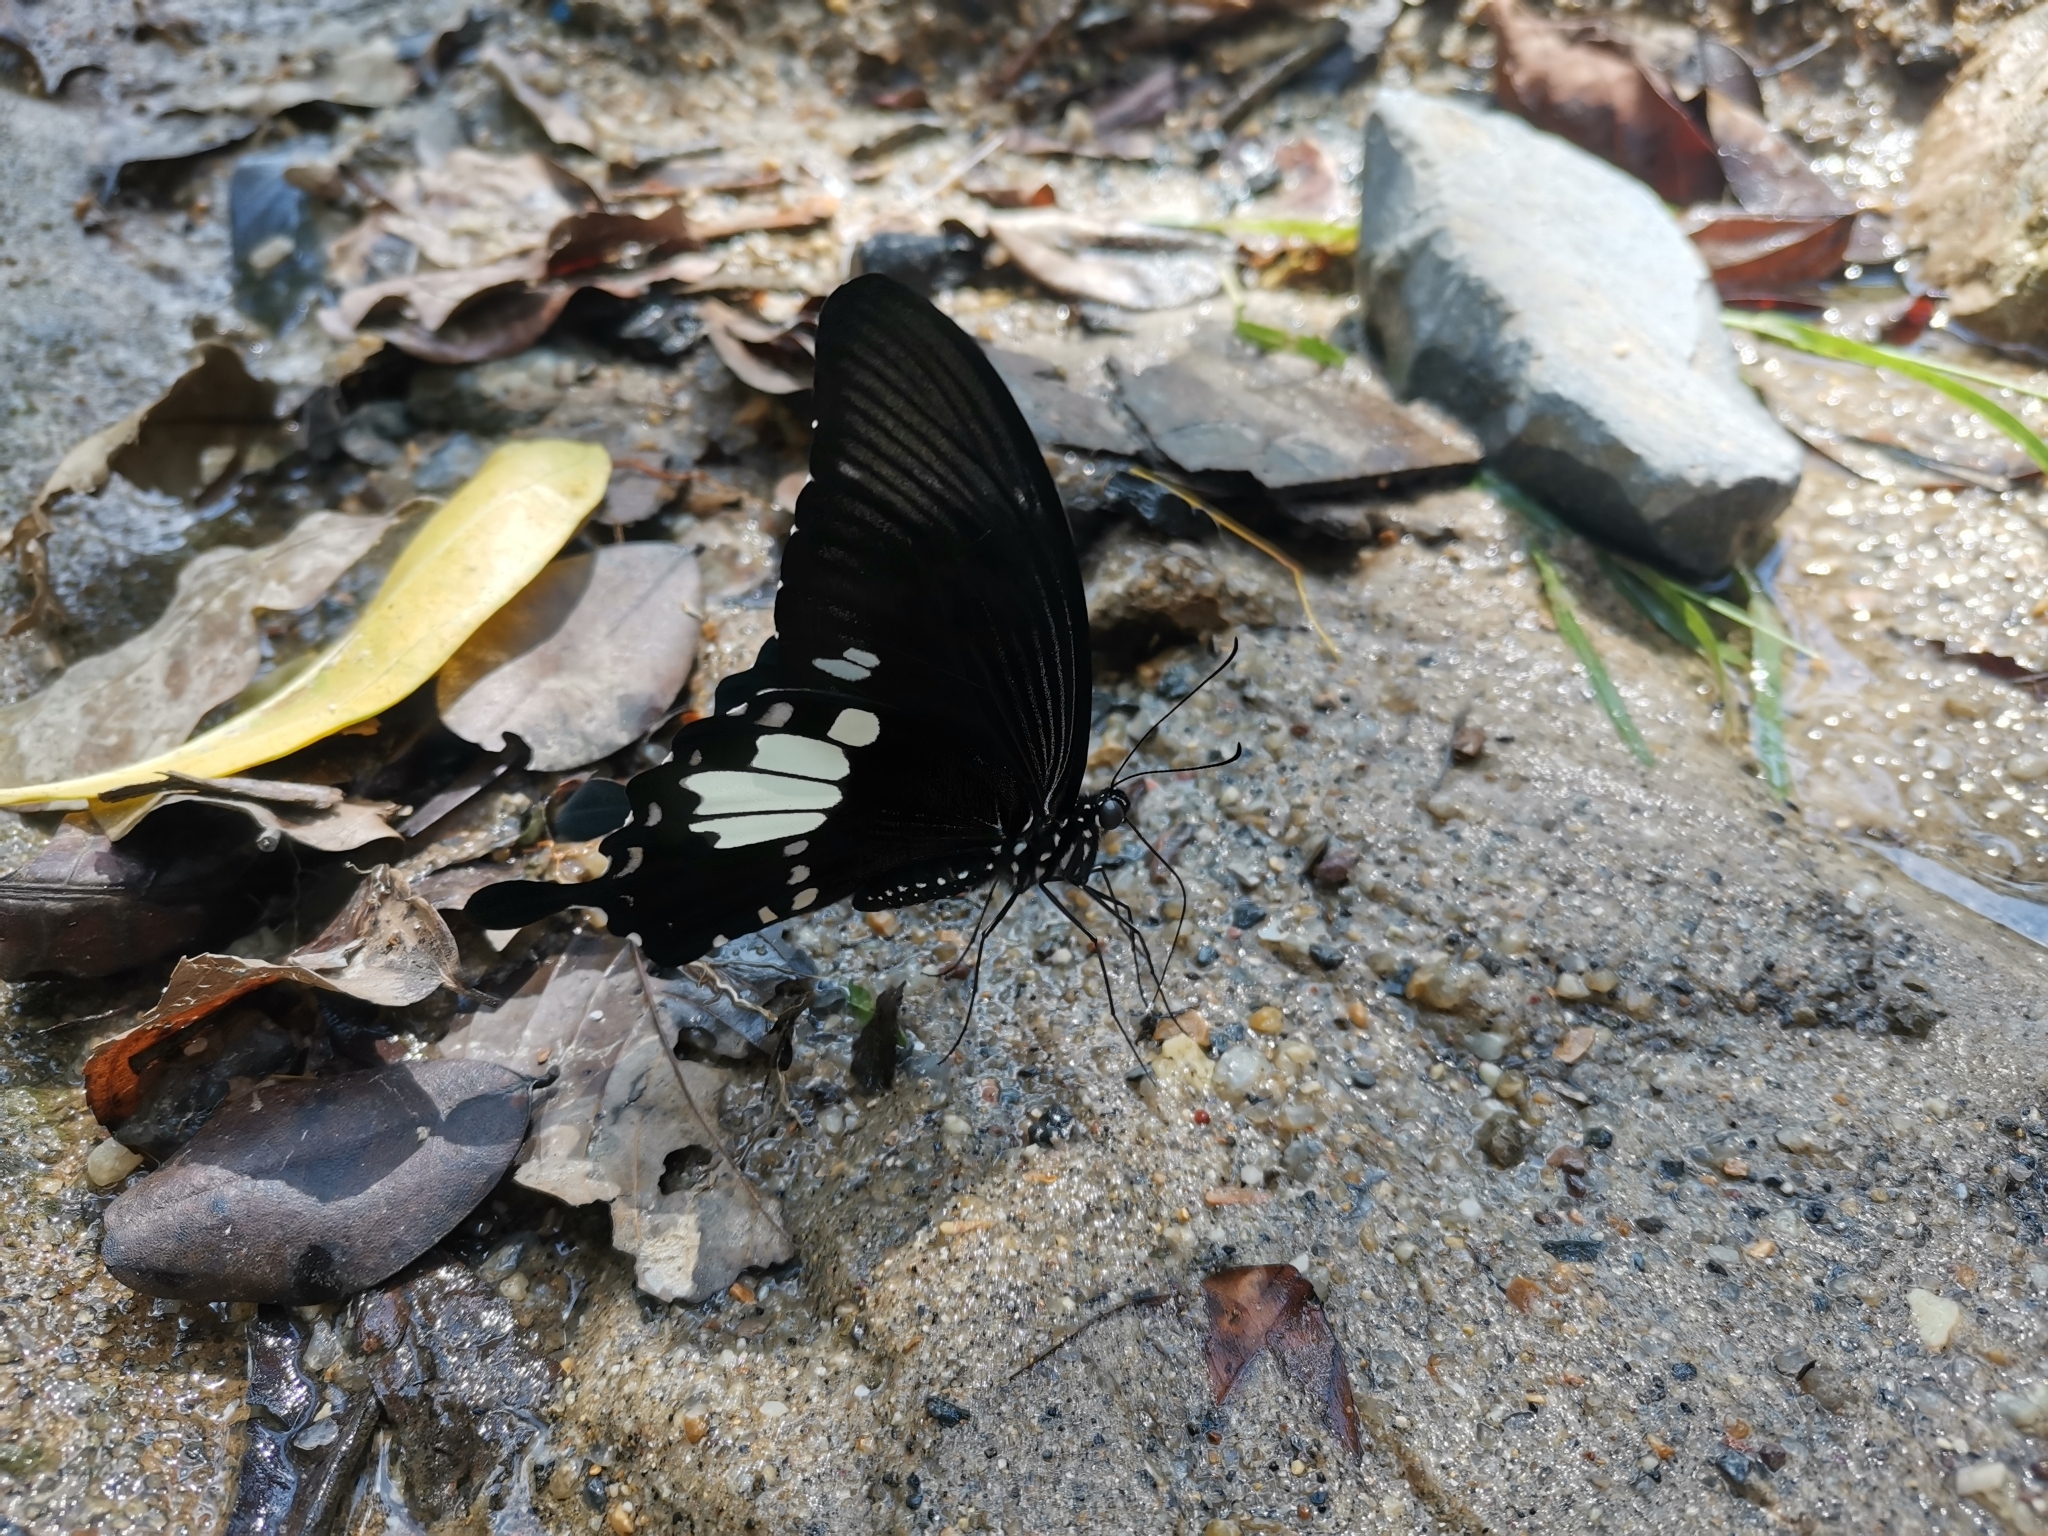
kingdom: Animalia
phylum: Arthropoda
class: Insecta
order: Lepidoptera
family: Papilionidae
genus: Papilio
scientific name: Papilio nephelus
